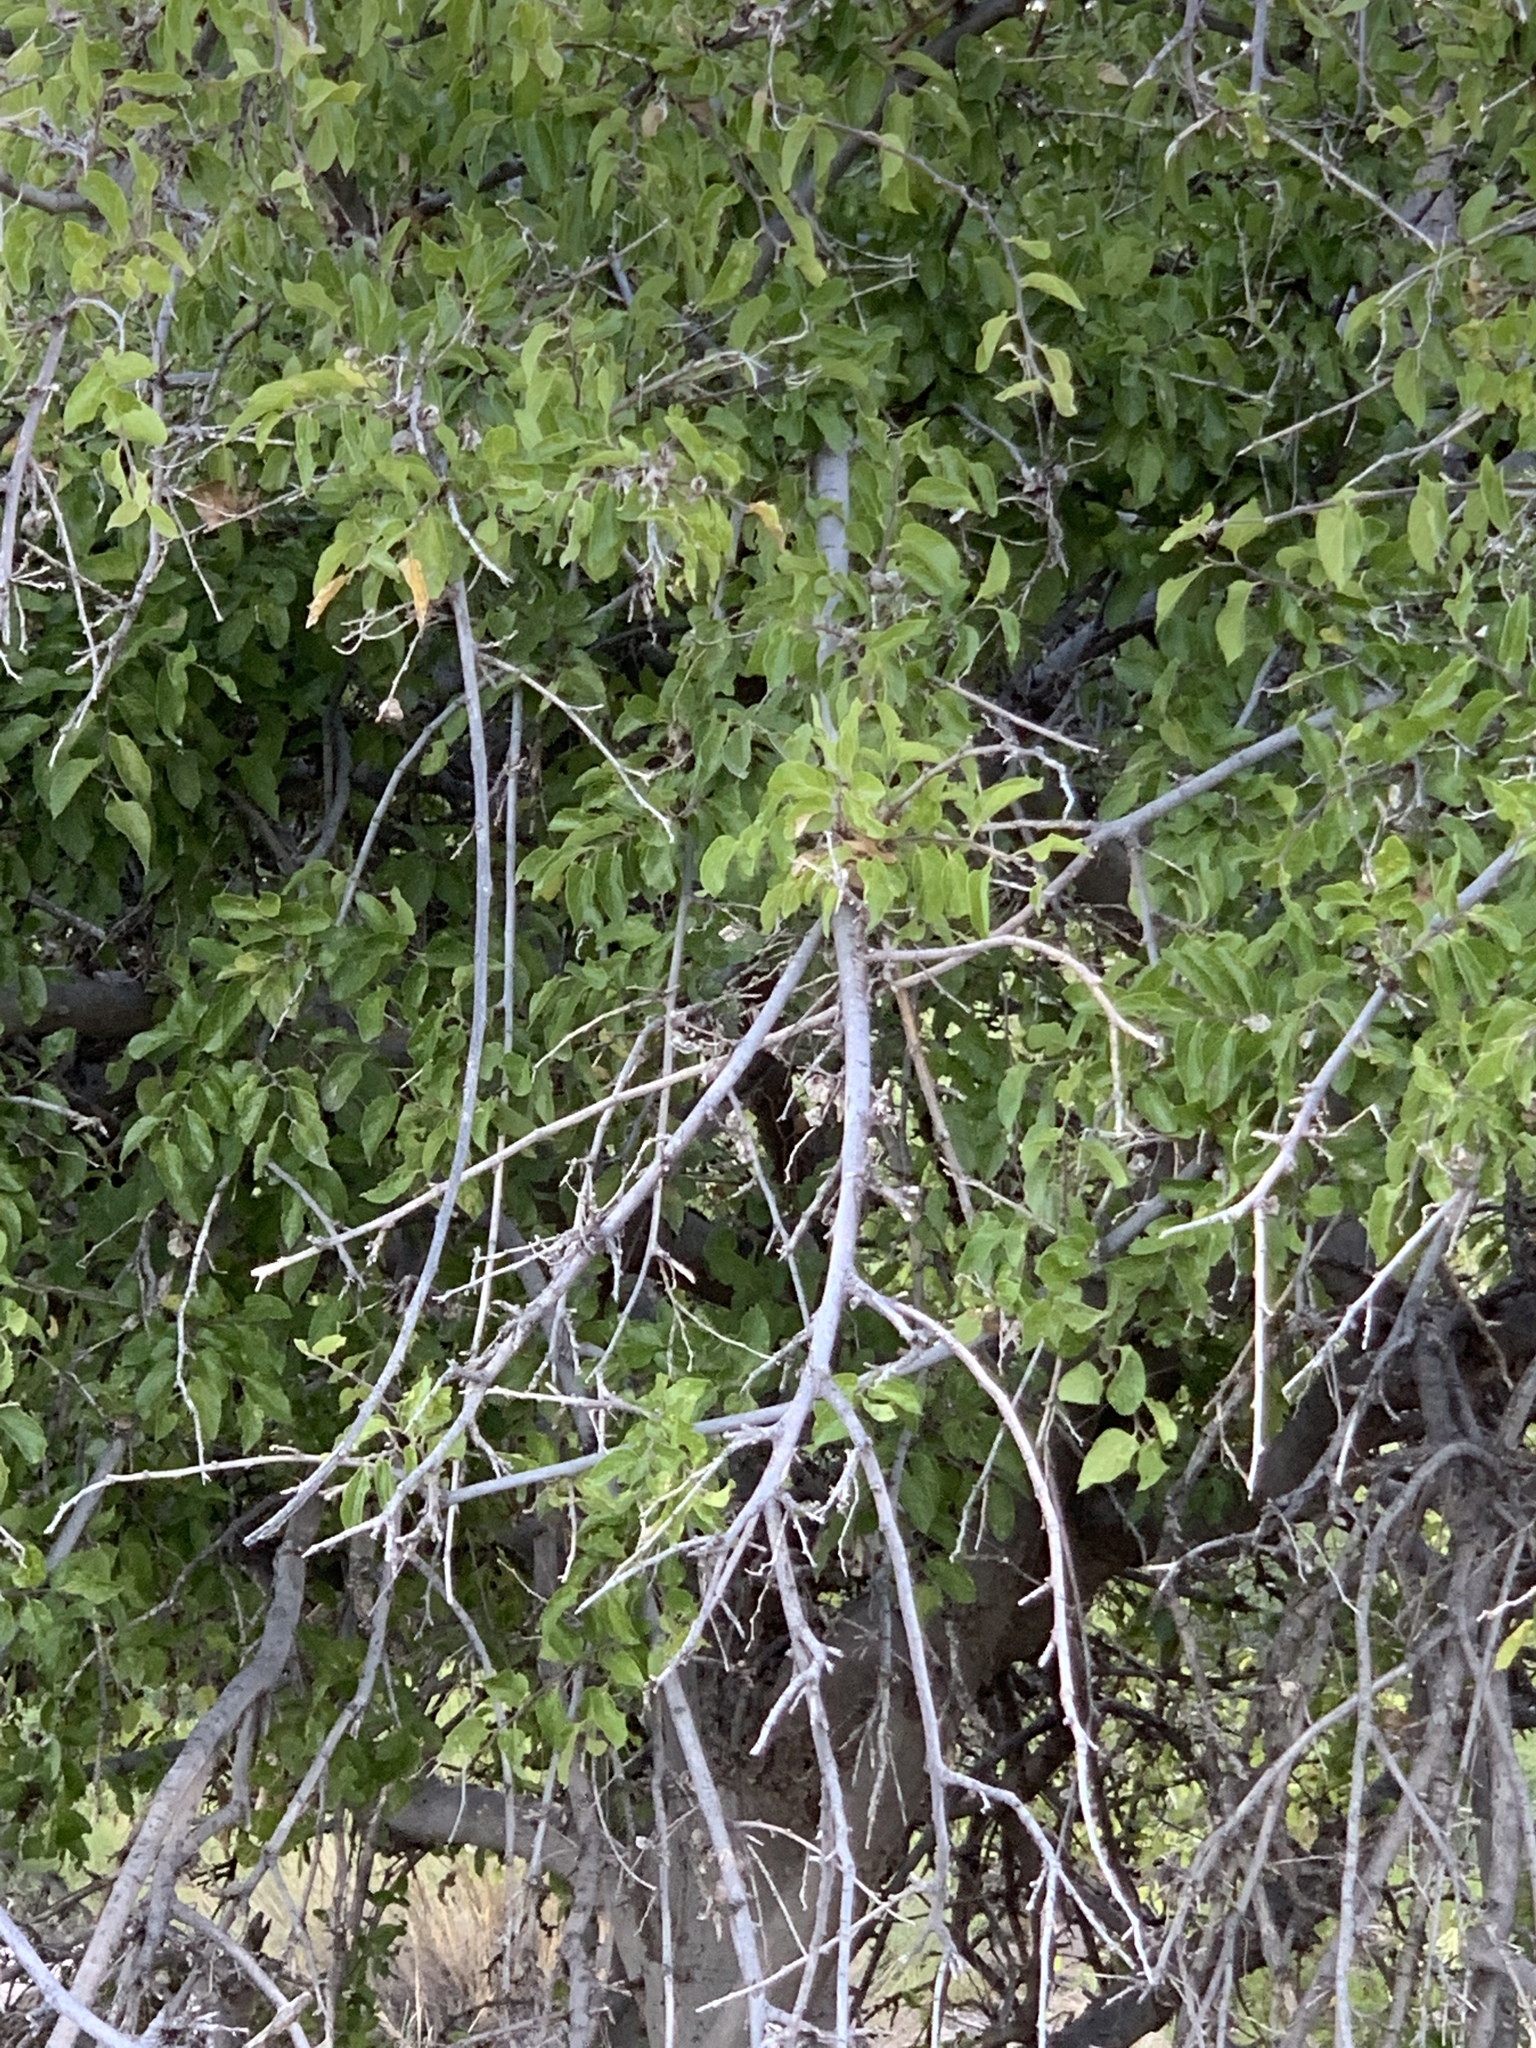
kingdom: Plantae
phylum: Tracheophyta
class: Magnoliopsida
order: Rosales
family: Cannabaceae
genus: Celtis
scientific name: Celtis reticulata
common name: Netleaf hackberry
